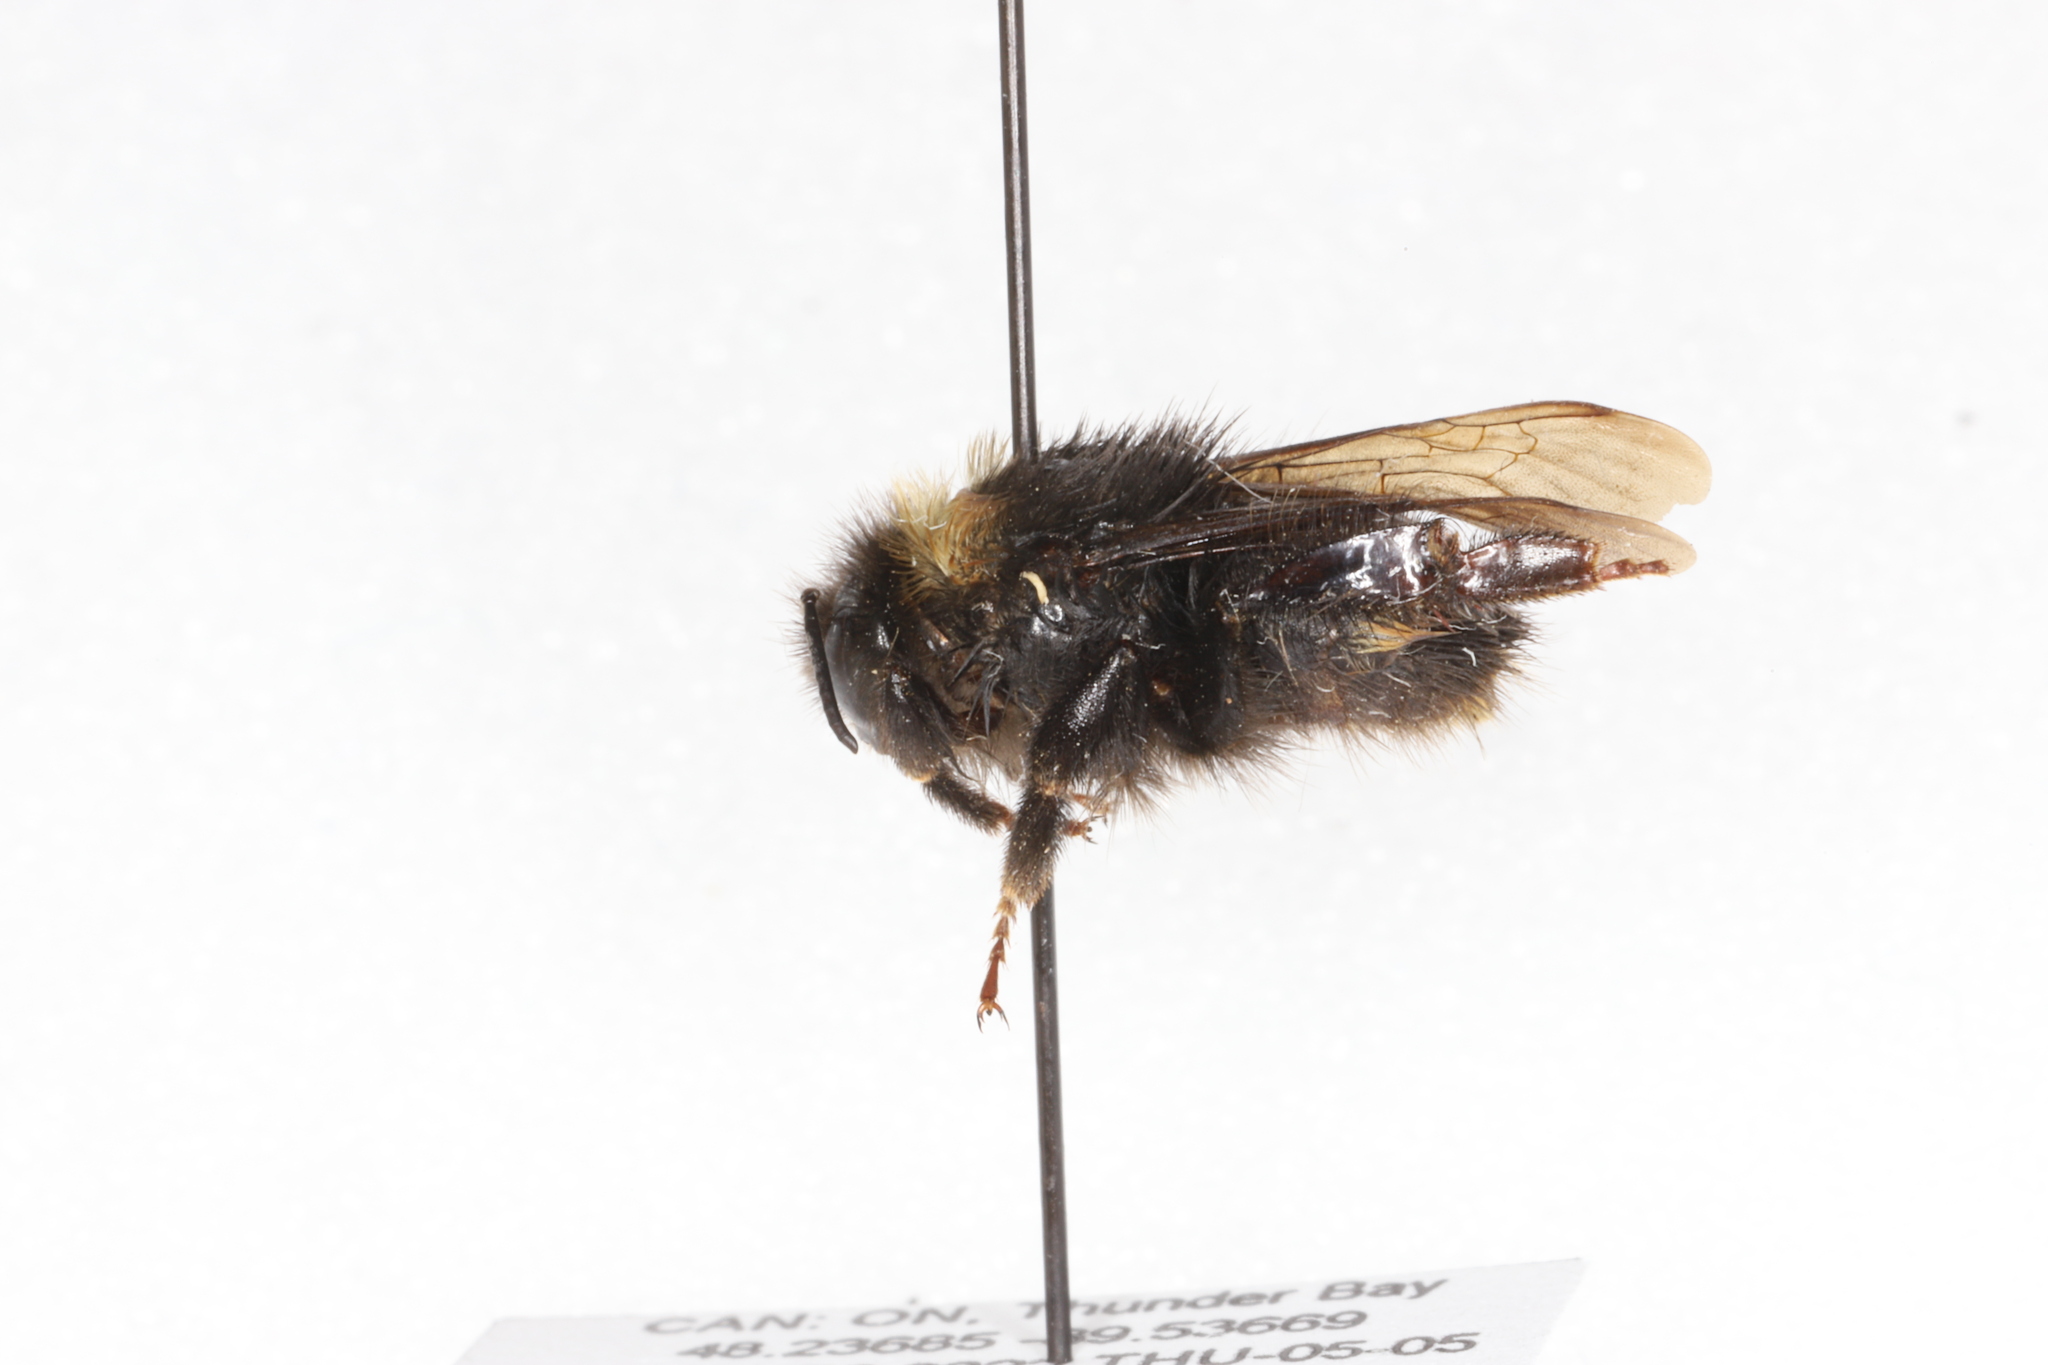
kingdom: Animalia
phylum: Arthropoda
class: Insecta
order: Hymenoptera
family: Apidae
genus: Bombus
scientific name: Bombus terricola
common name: Yellow-banded bumble bee
